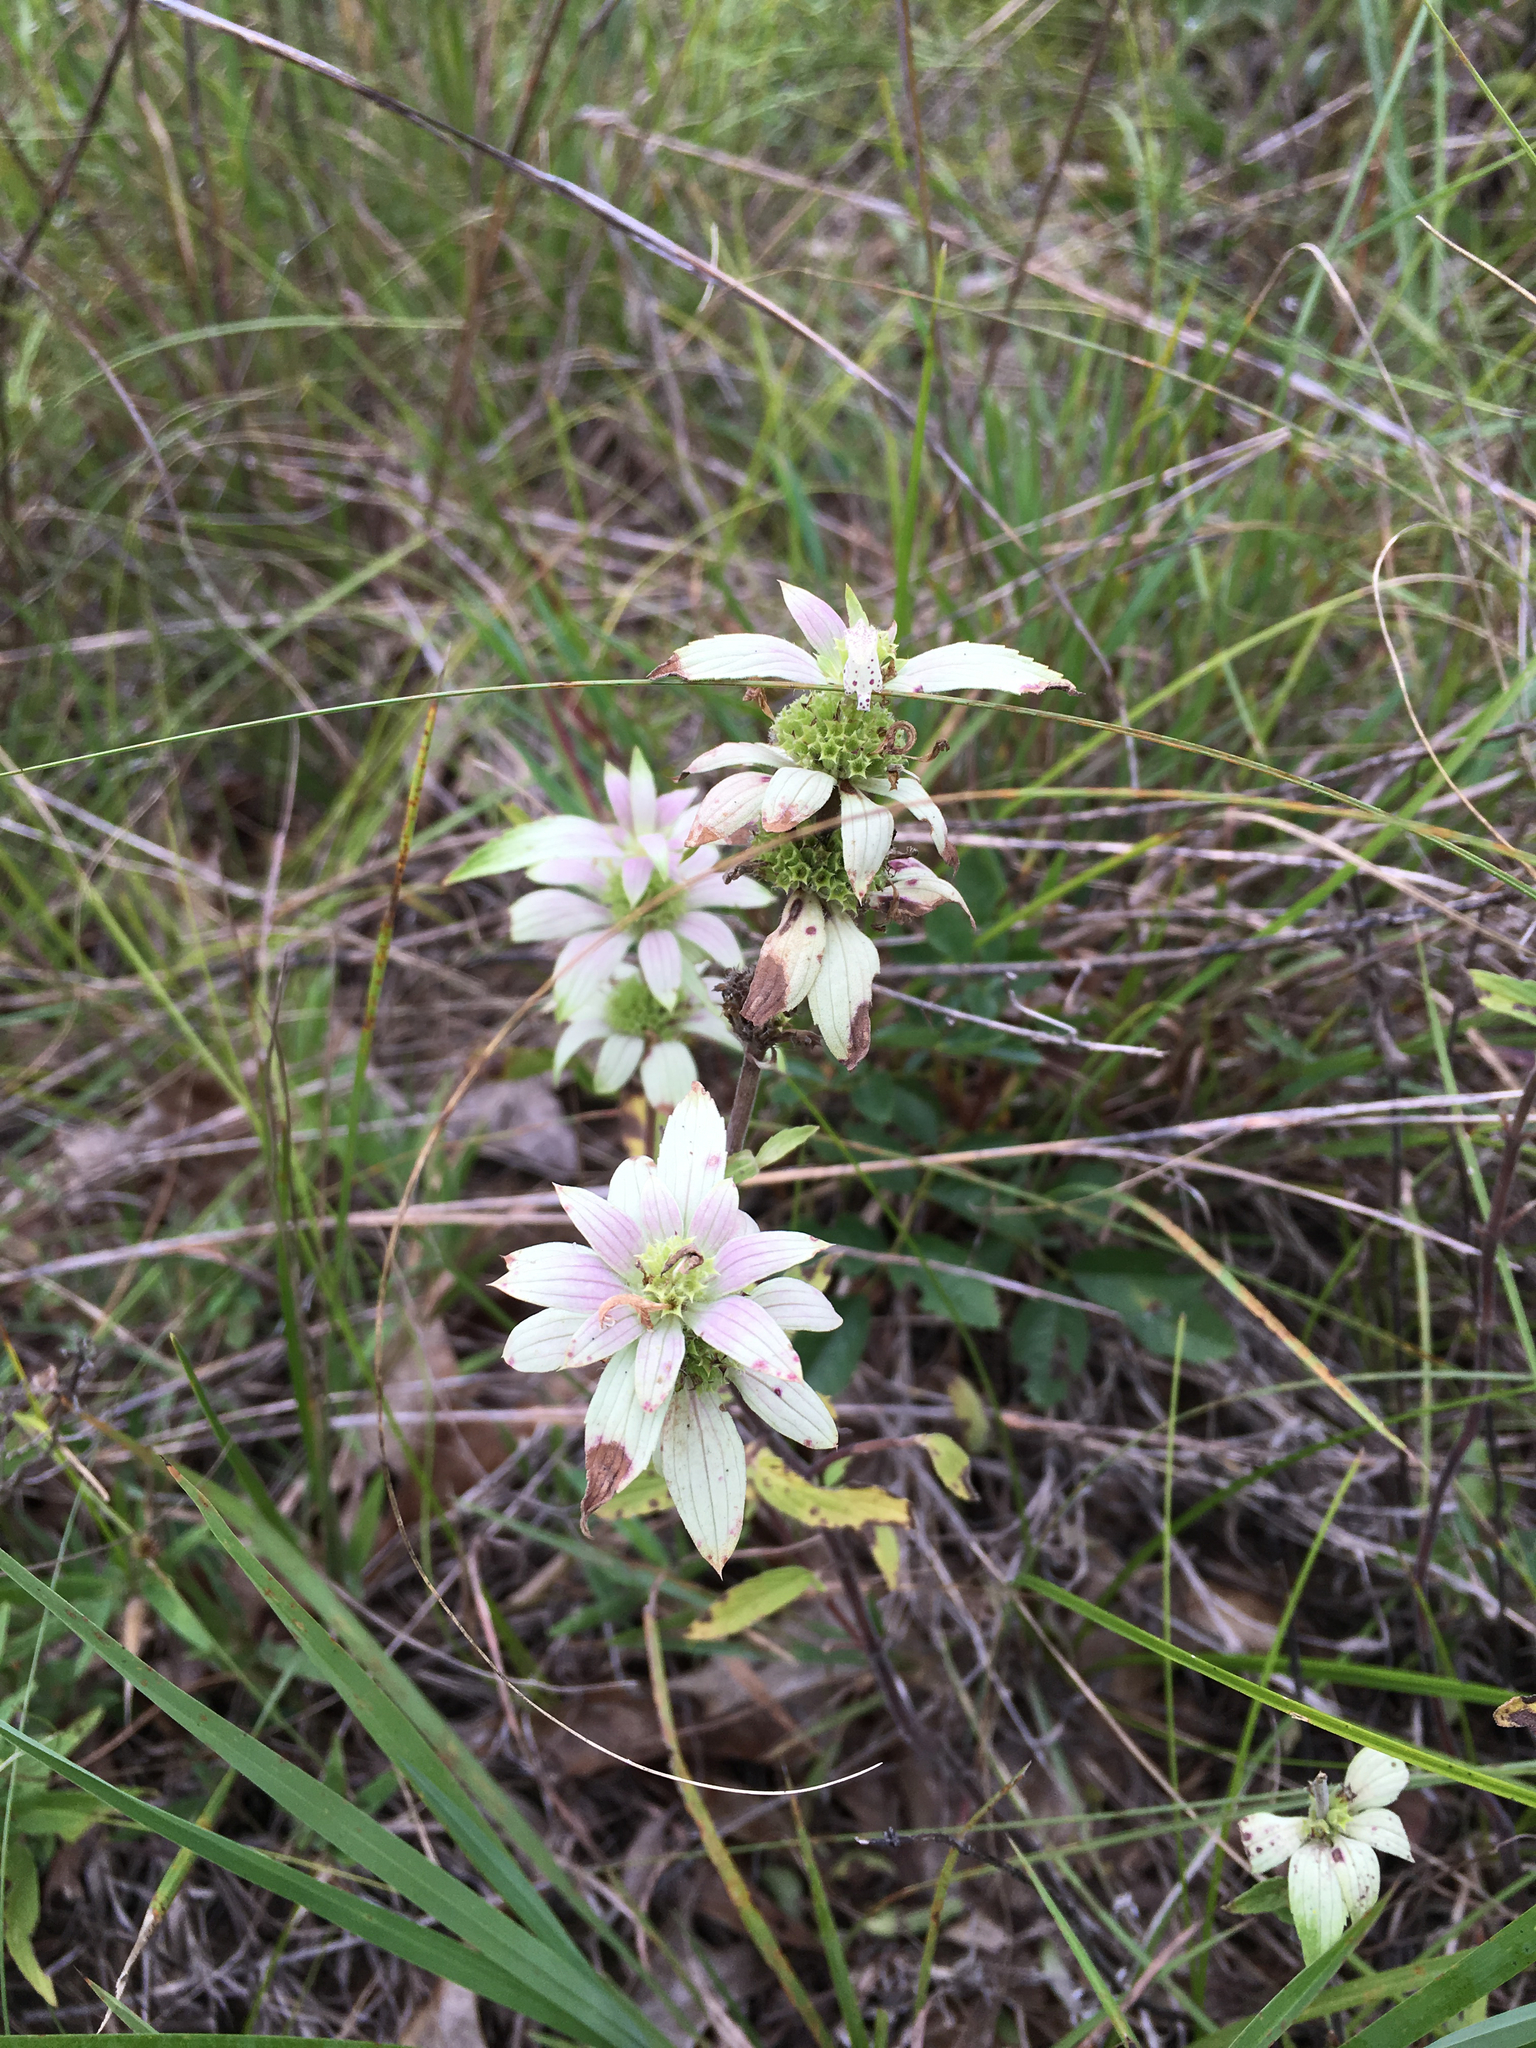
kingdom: Plantae
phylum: Tracheophyta
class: Magnoliopsida
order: Lamiales
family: Lamiaceae
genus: Monarda
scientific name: Monarda punctata
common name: Dotted monarda
